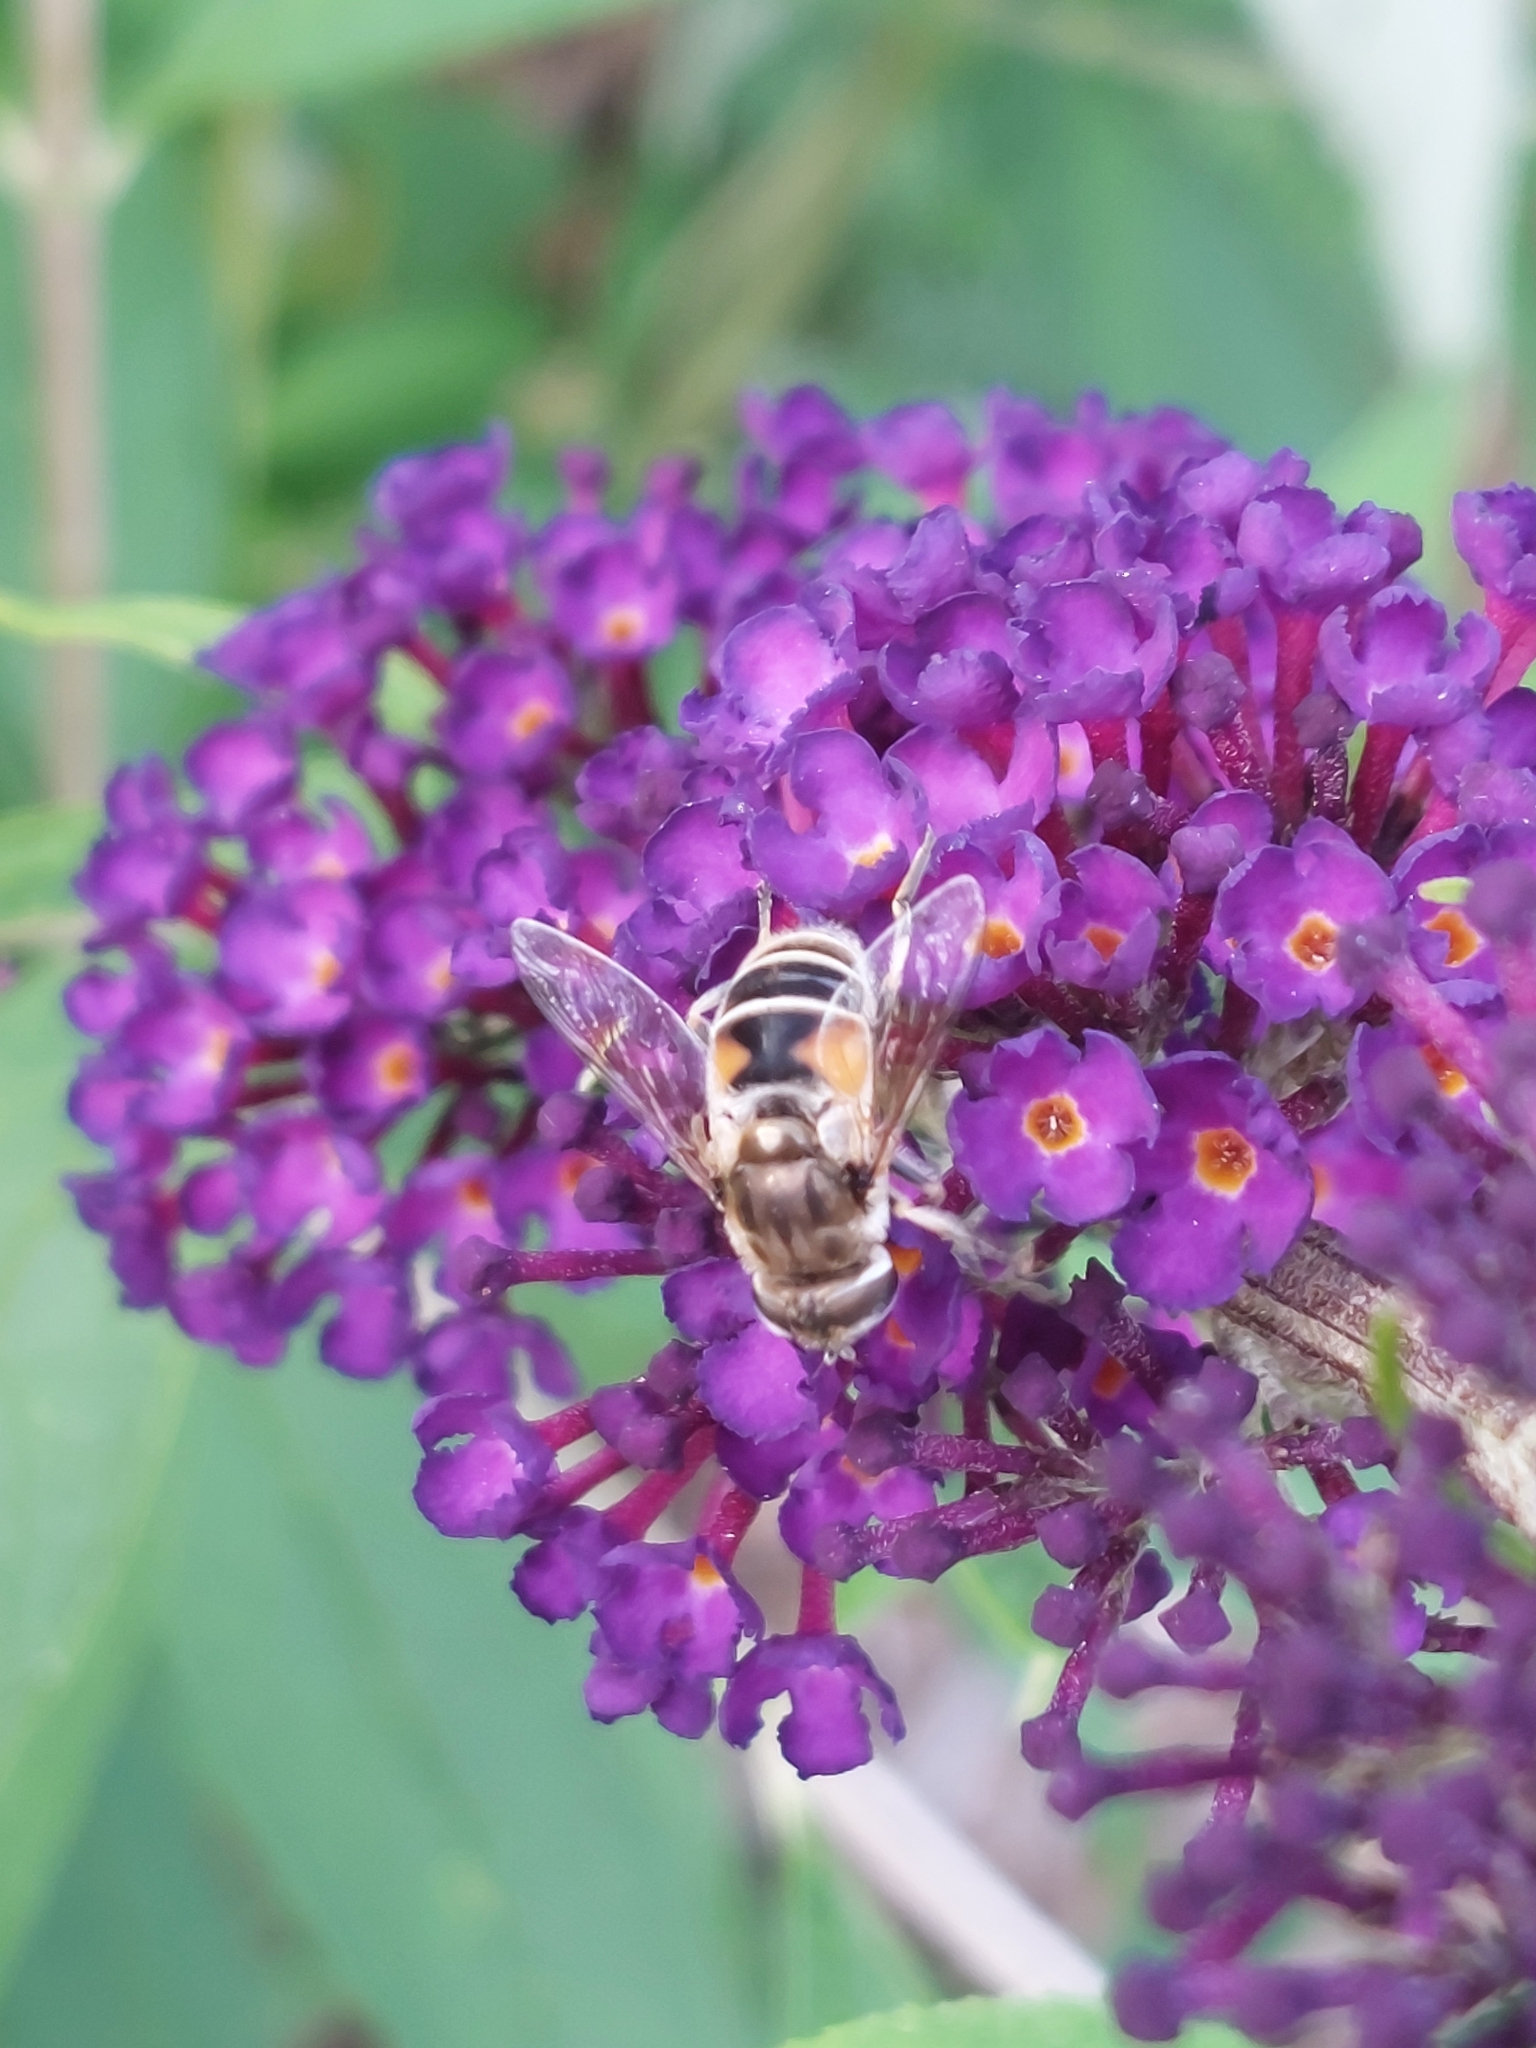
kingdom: Animalia
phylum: Arthropoda
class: Insecta
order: Diptera
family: Syrphidae
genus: Eristalis
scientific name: Eristalis arbustorum
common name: Hover fly
